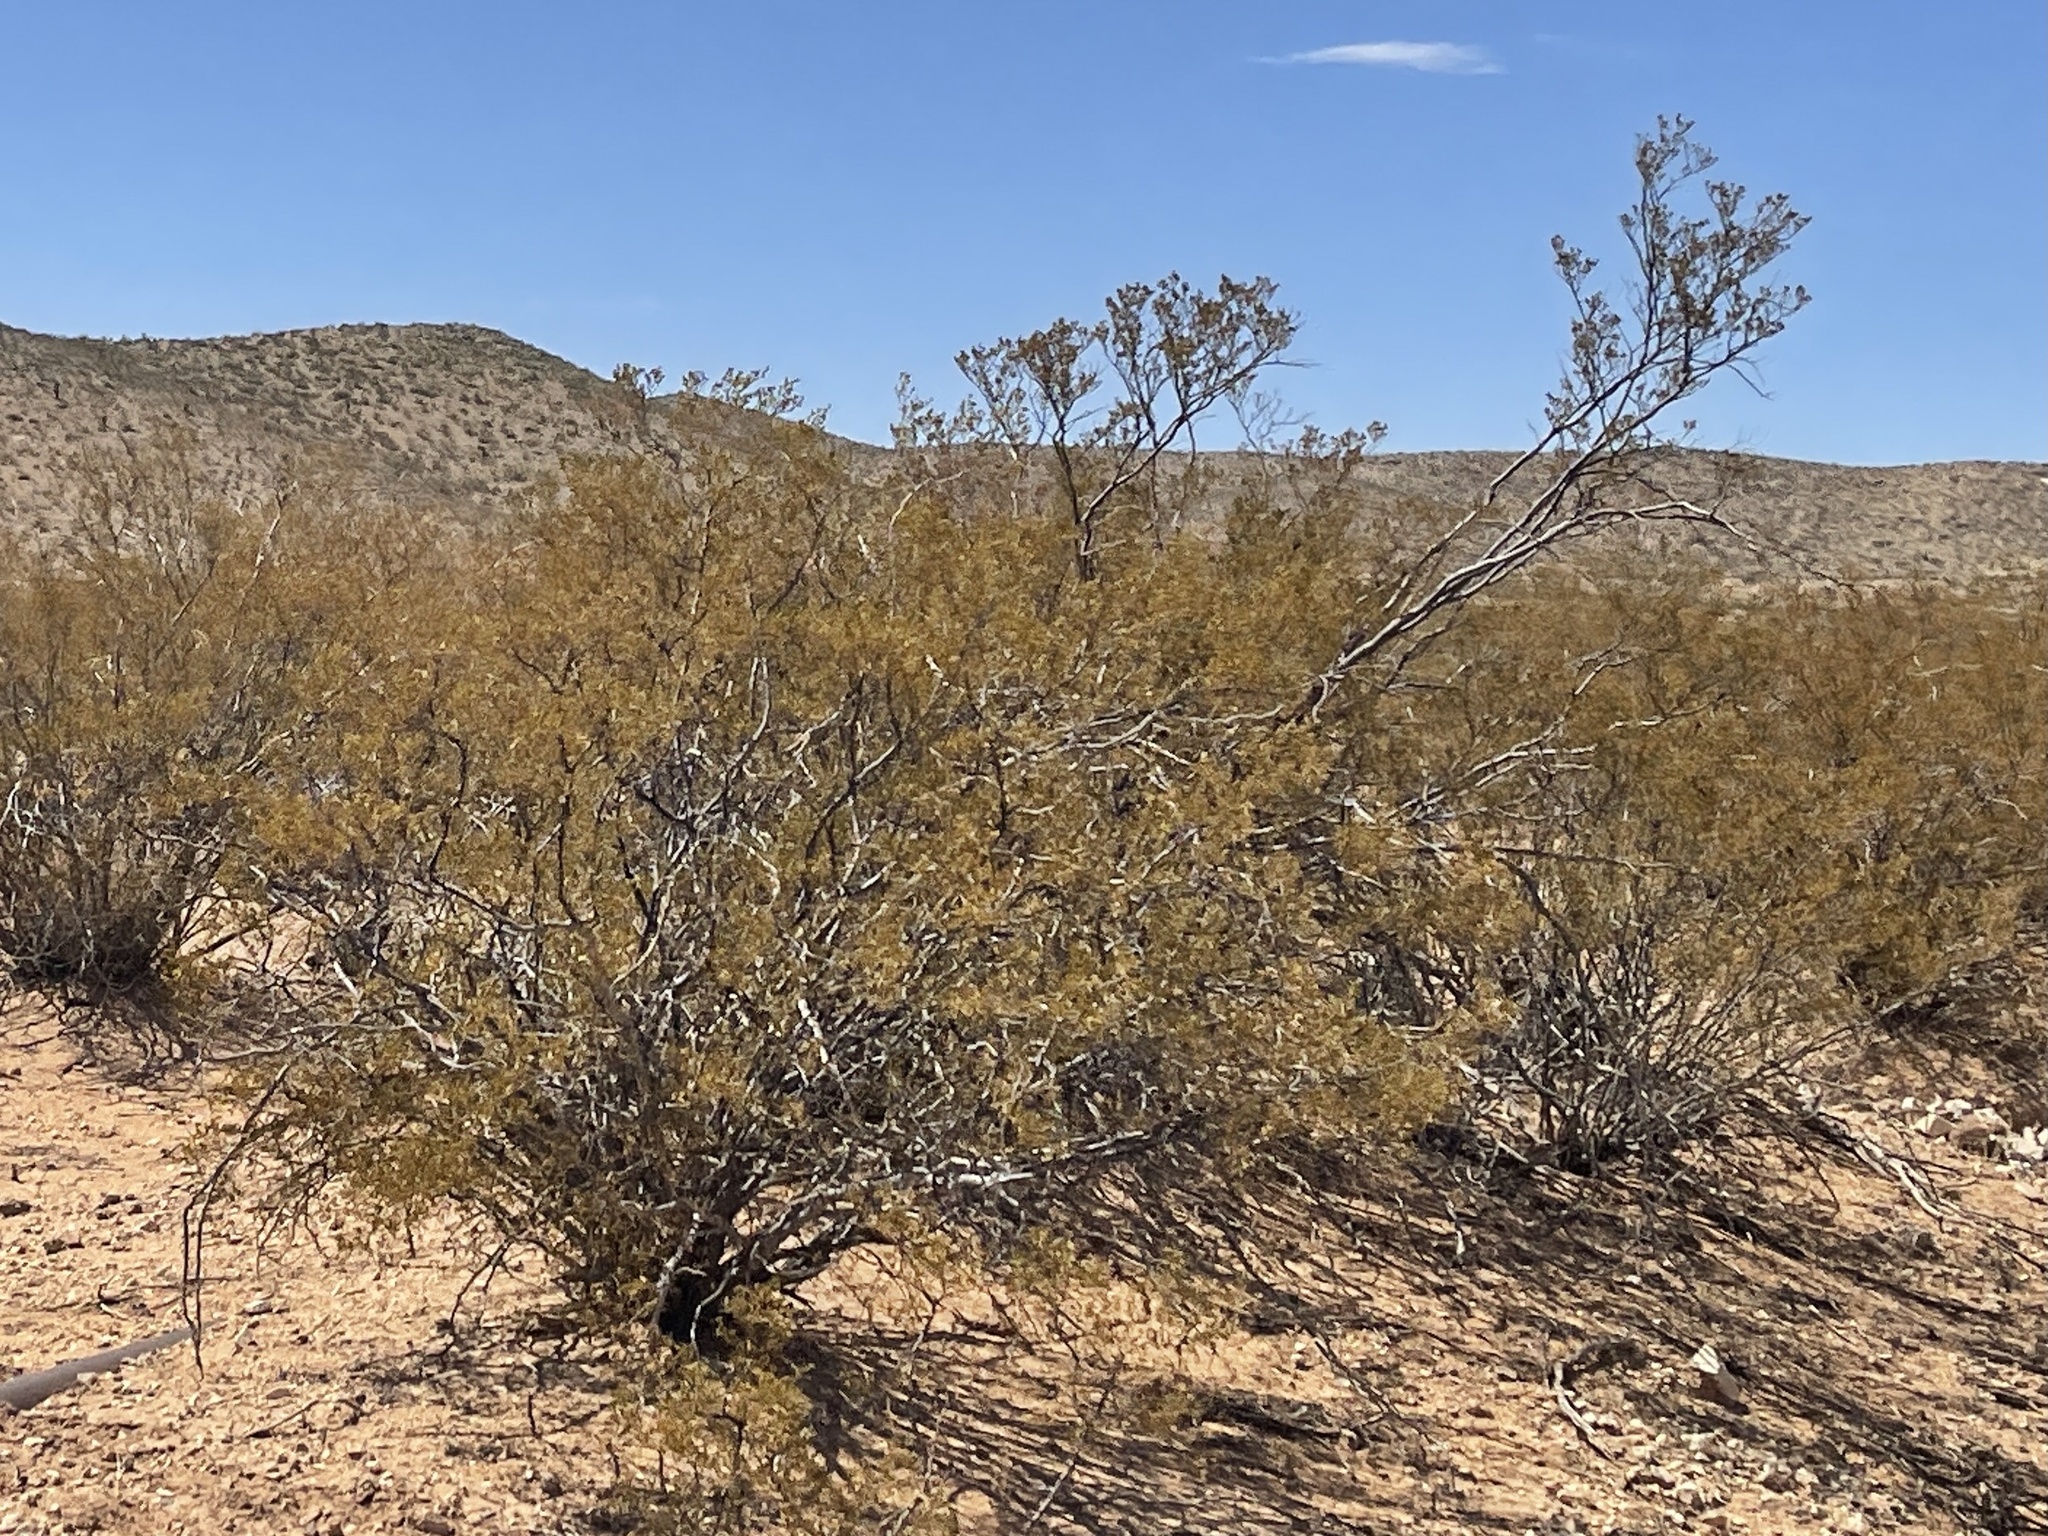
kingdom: Plantae
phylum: Tracheophyta
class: Magnoliopsida
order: Zygophyllales
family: Zygophyllaceae
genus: Larrea
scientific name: Larrea tridentata
